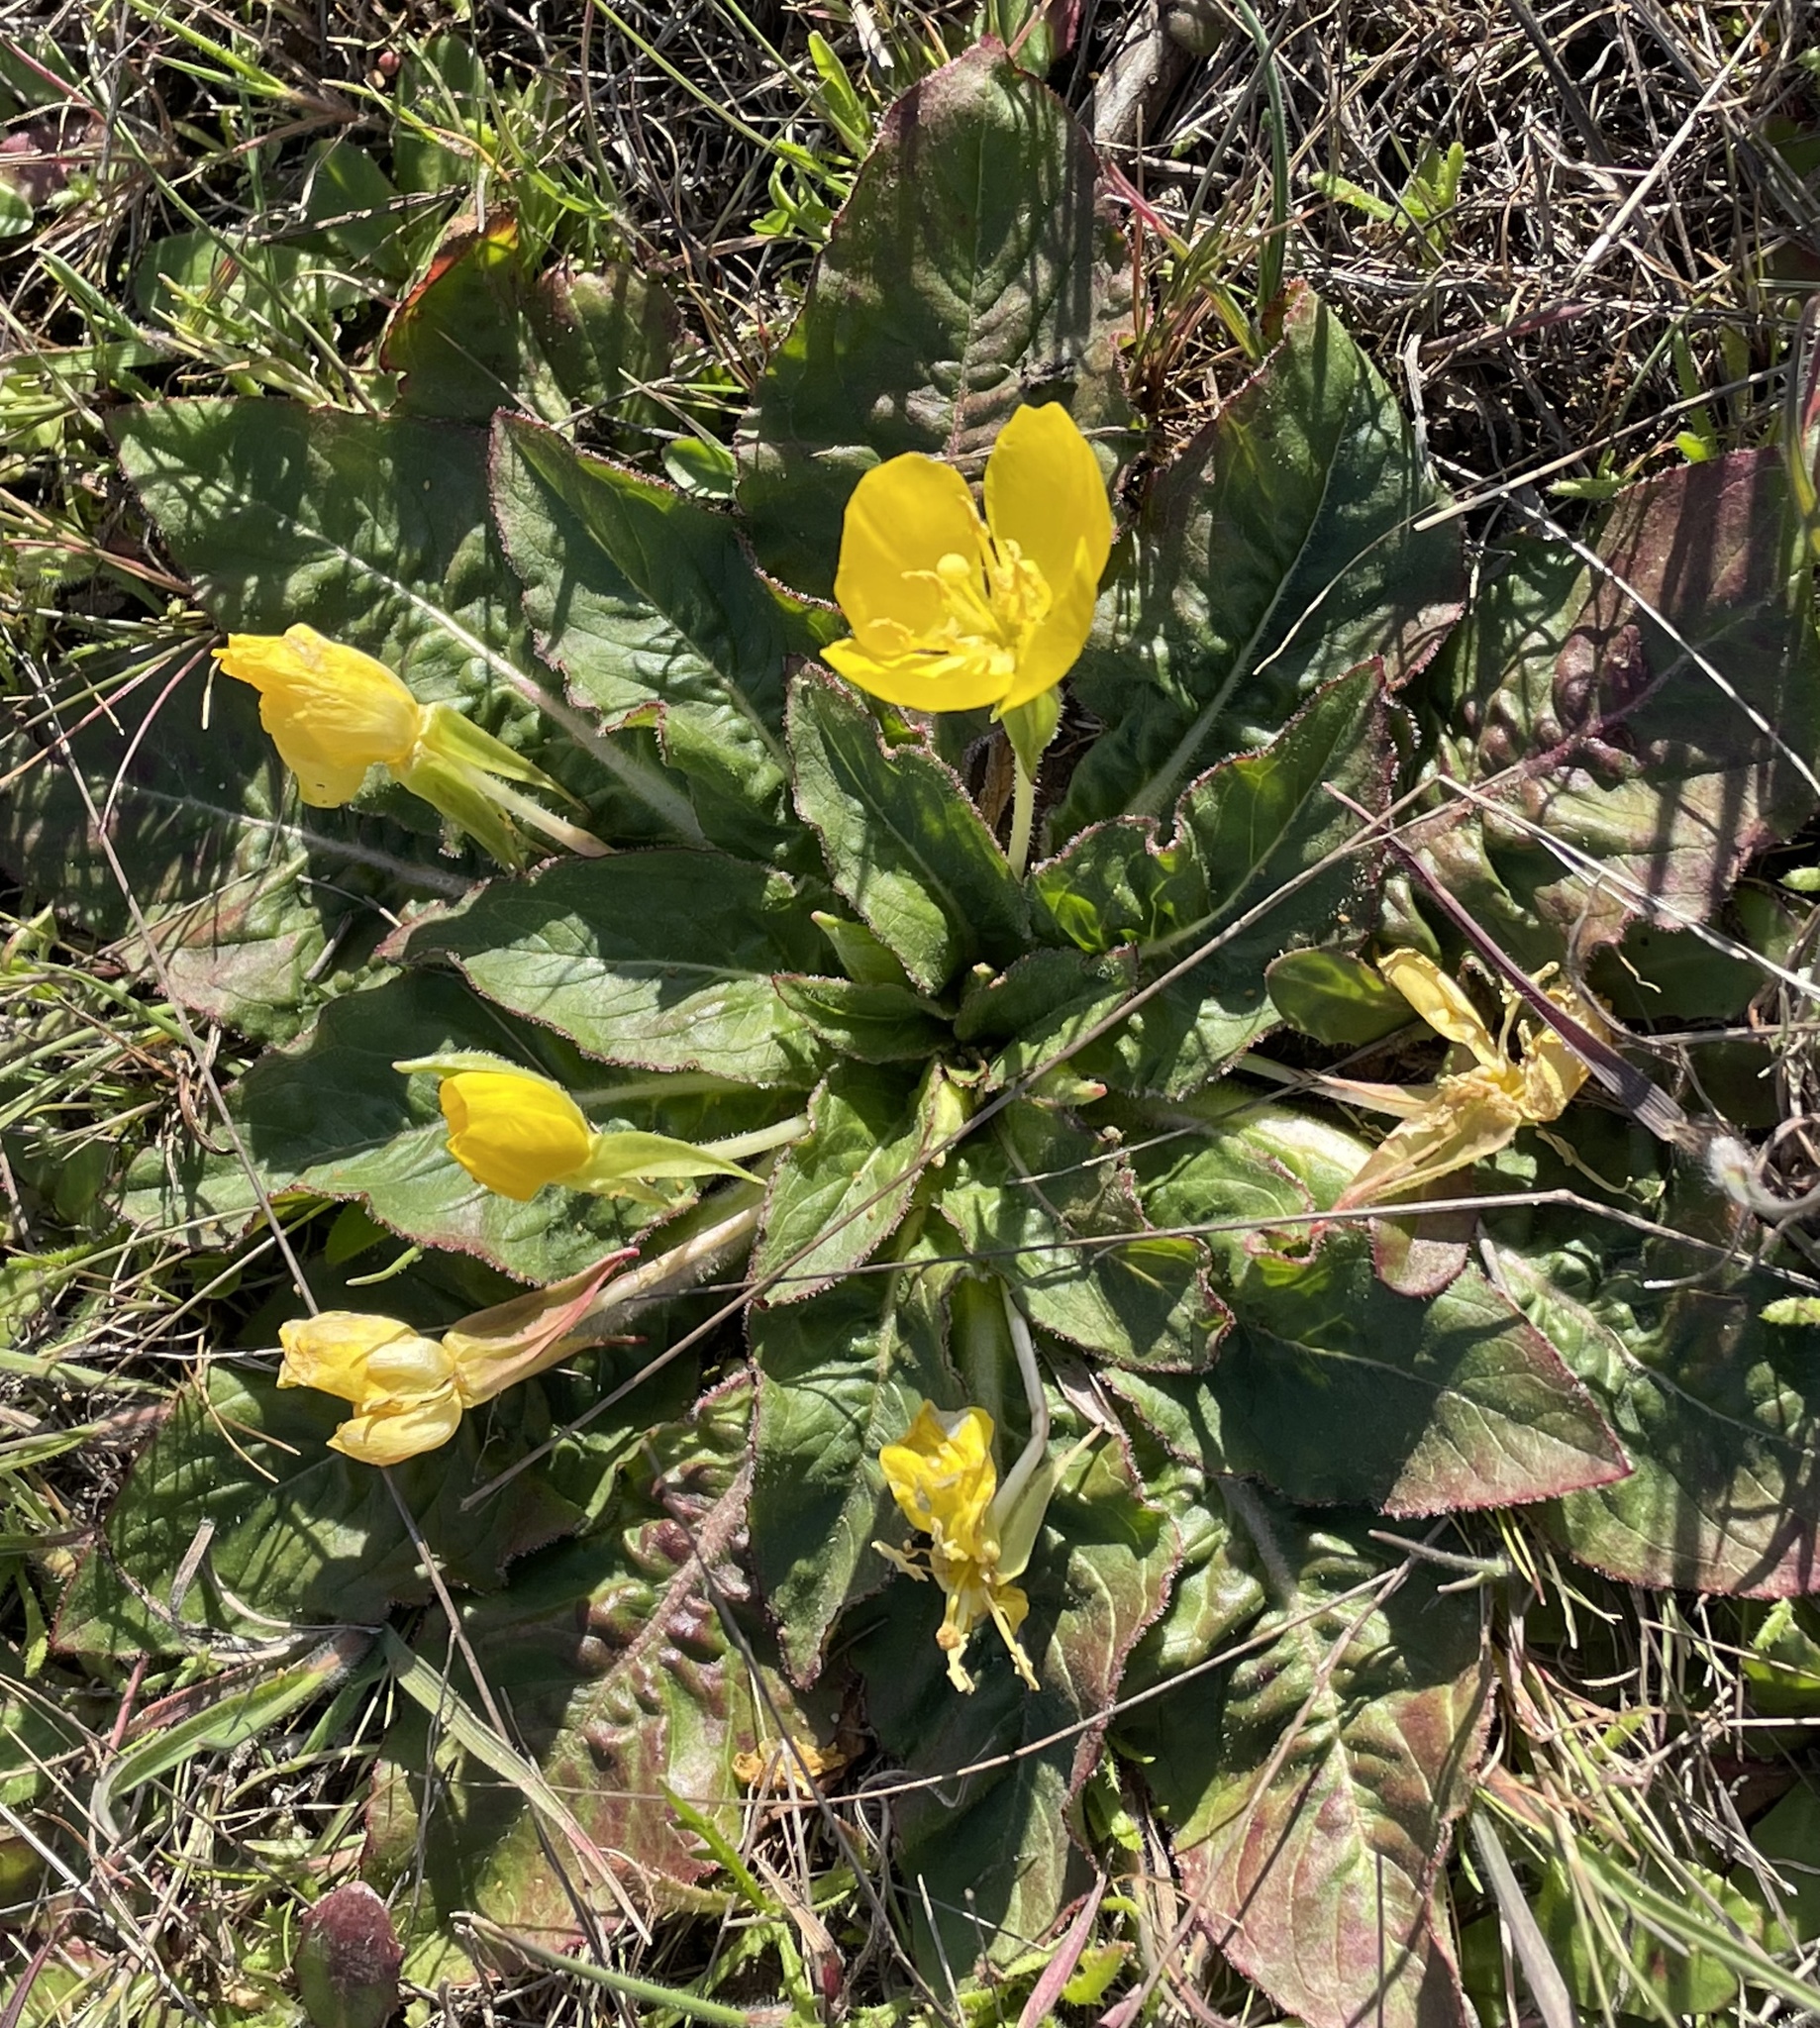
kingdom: Plantae
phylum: Tracheophyta
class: Magnoliopsida
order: Myrtales
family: Onagraceae
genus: Taraxia
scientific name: Taraxia ovata
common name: Goldeneggs
